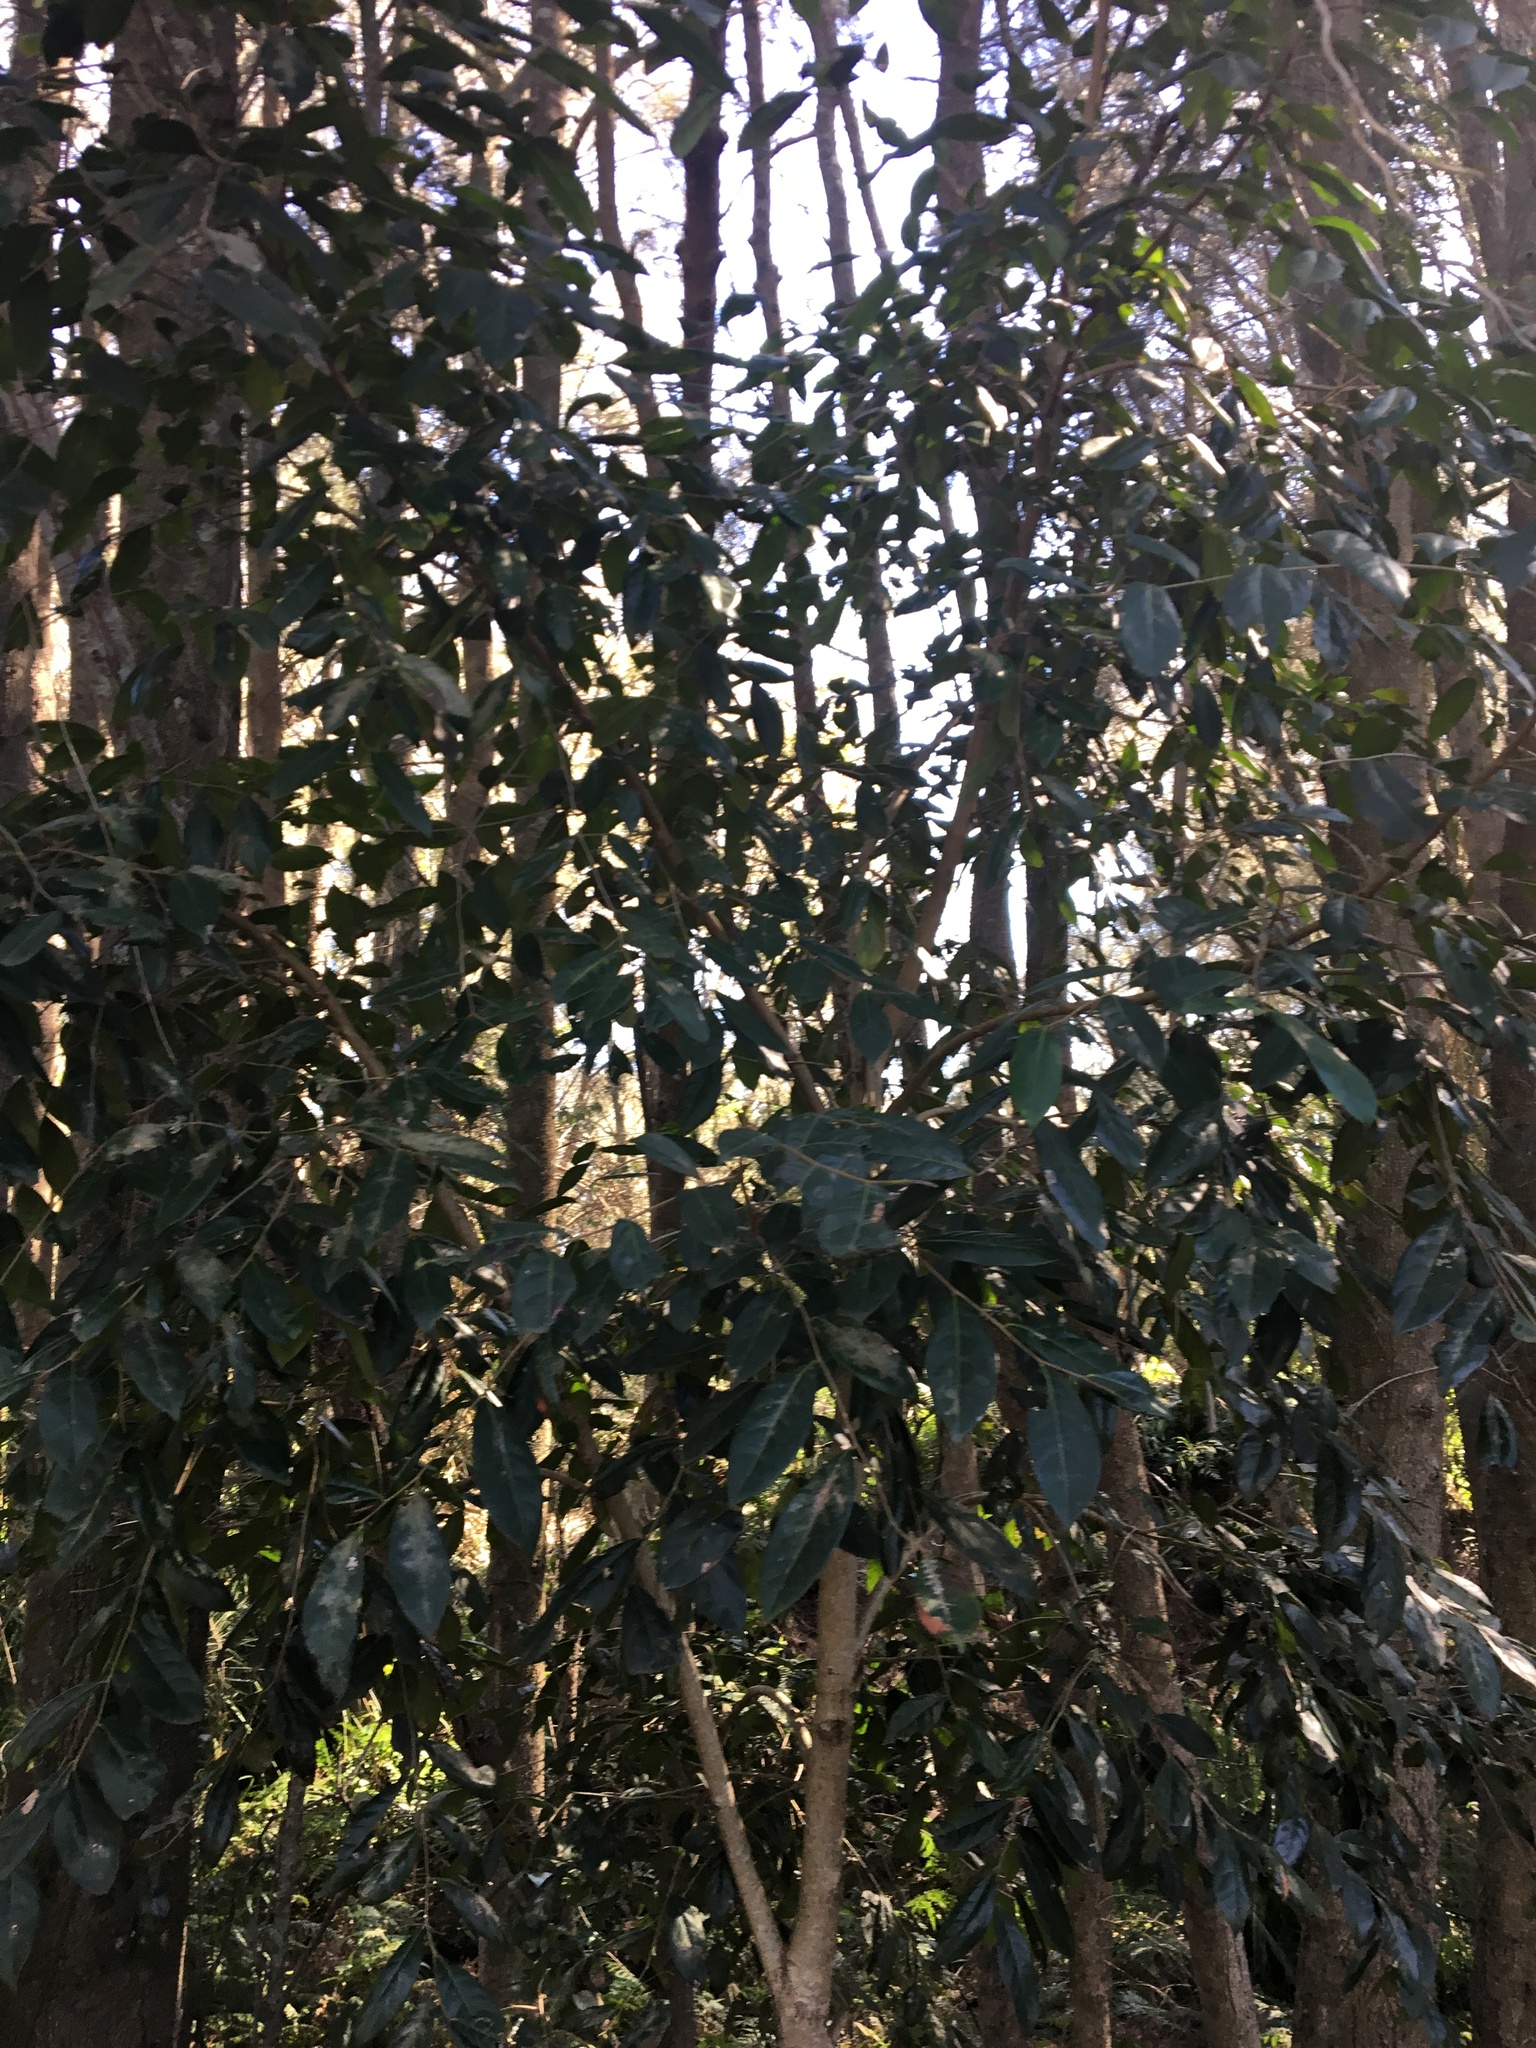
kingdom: Plantae
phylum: Tracheophyta
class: Magnoliopsida
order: Malpighiales
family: Phyllanthaceae
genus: Glochidion
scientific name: Glochidion ferdinandi
